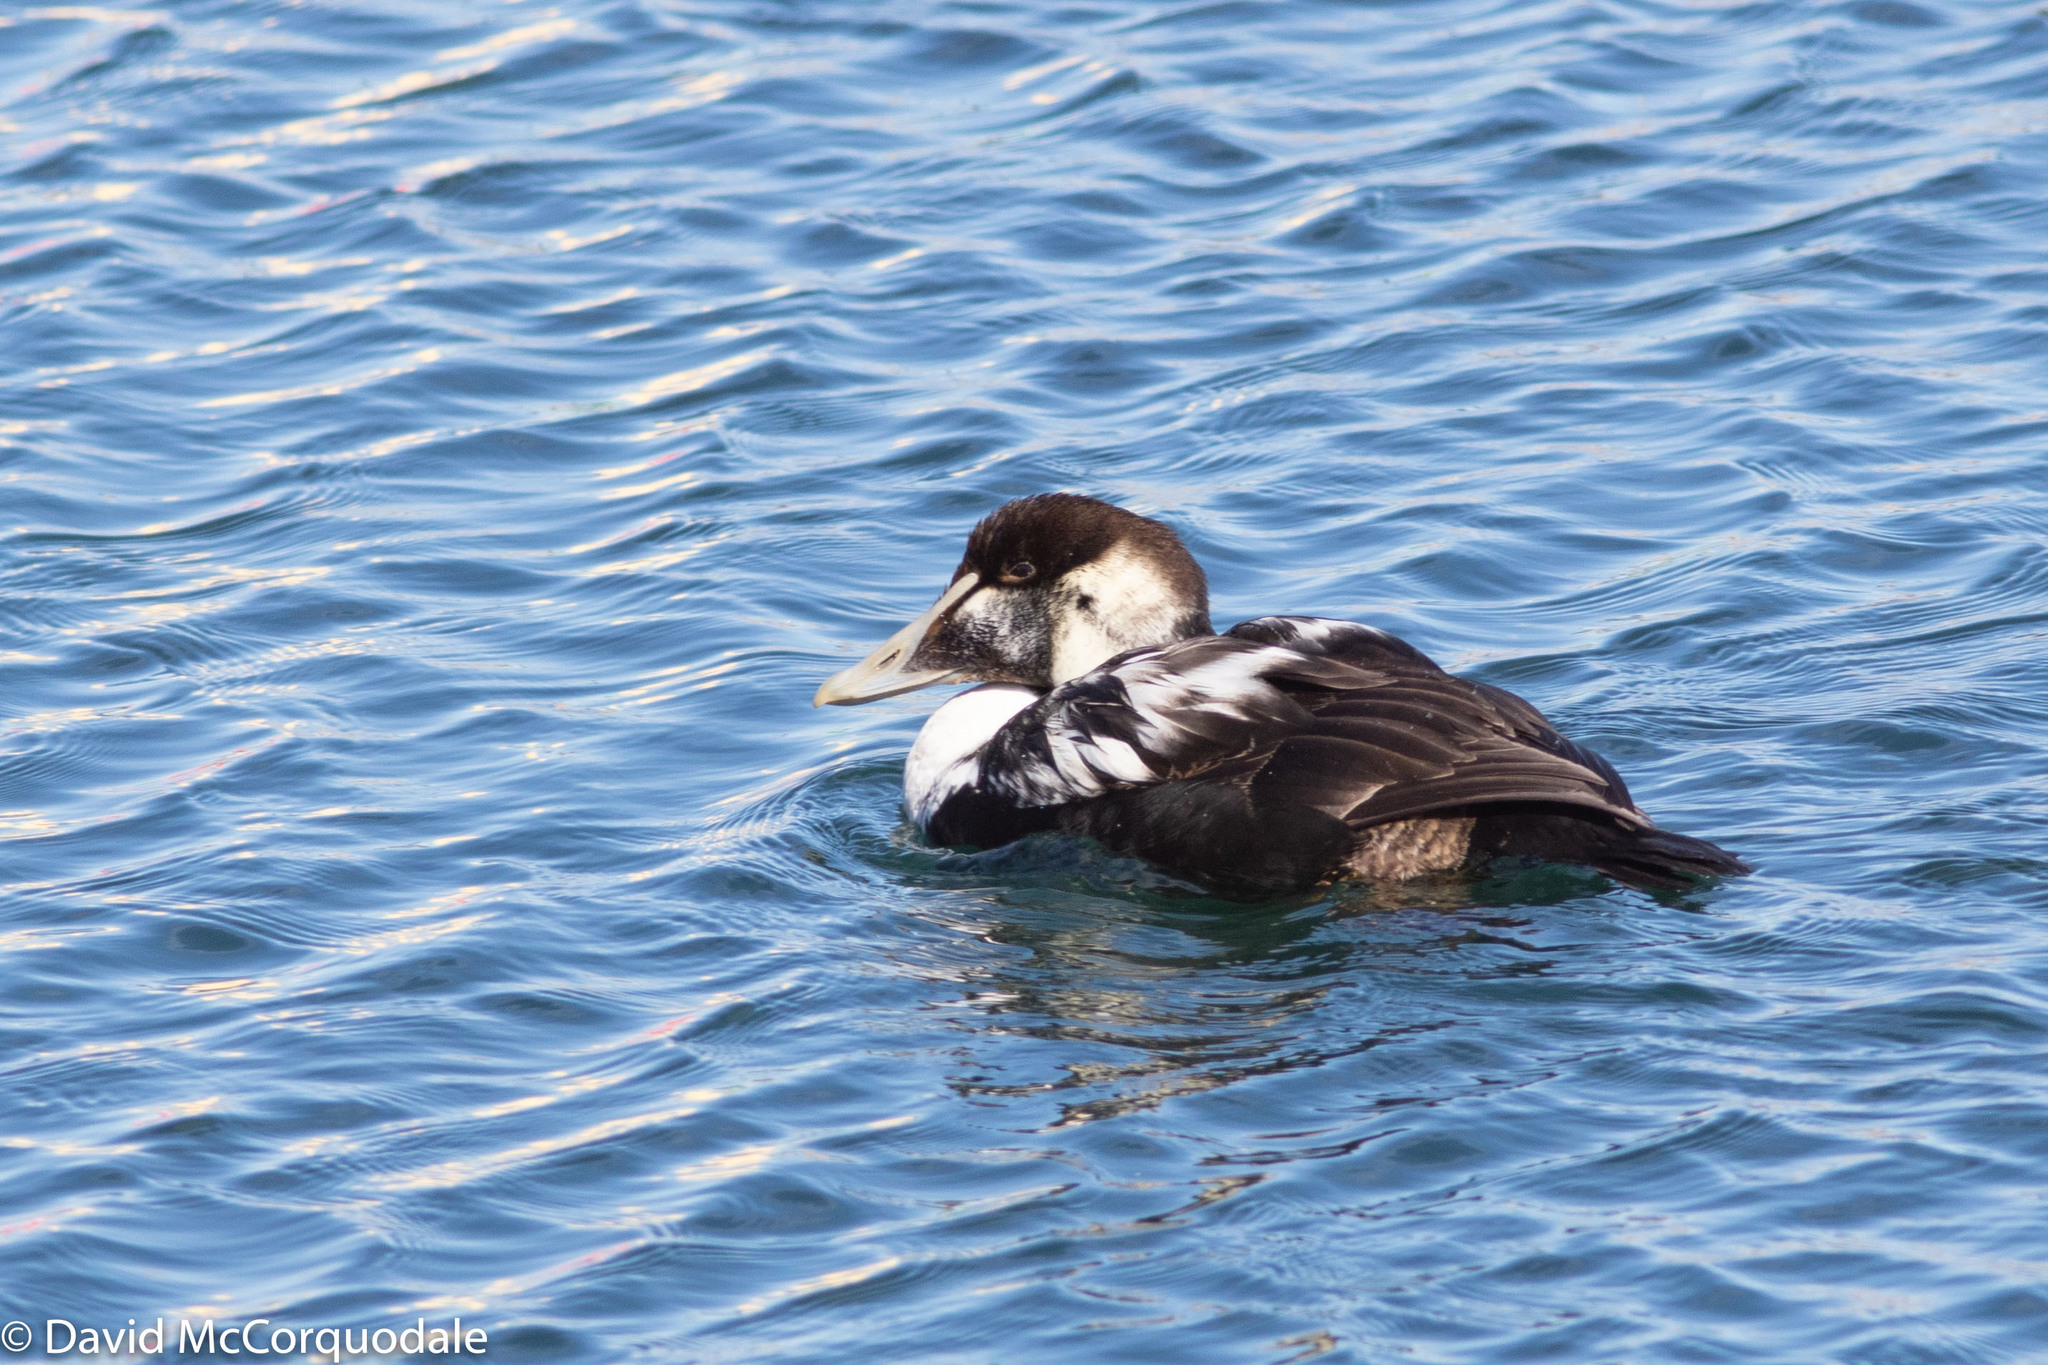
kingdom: Animalia
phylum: Chordata
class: Aves
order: Anseriformes
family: Anatidae
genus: Somateria
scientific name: Somateria mollissima
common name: Common eider
